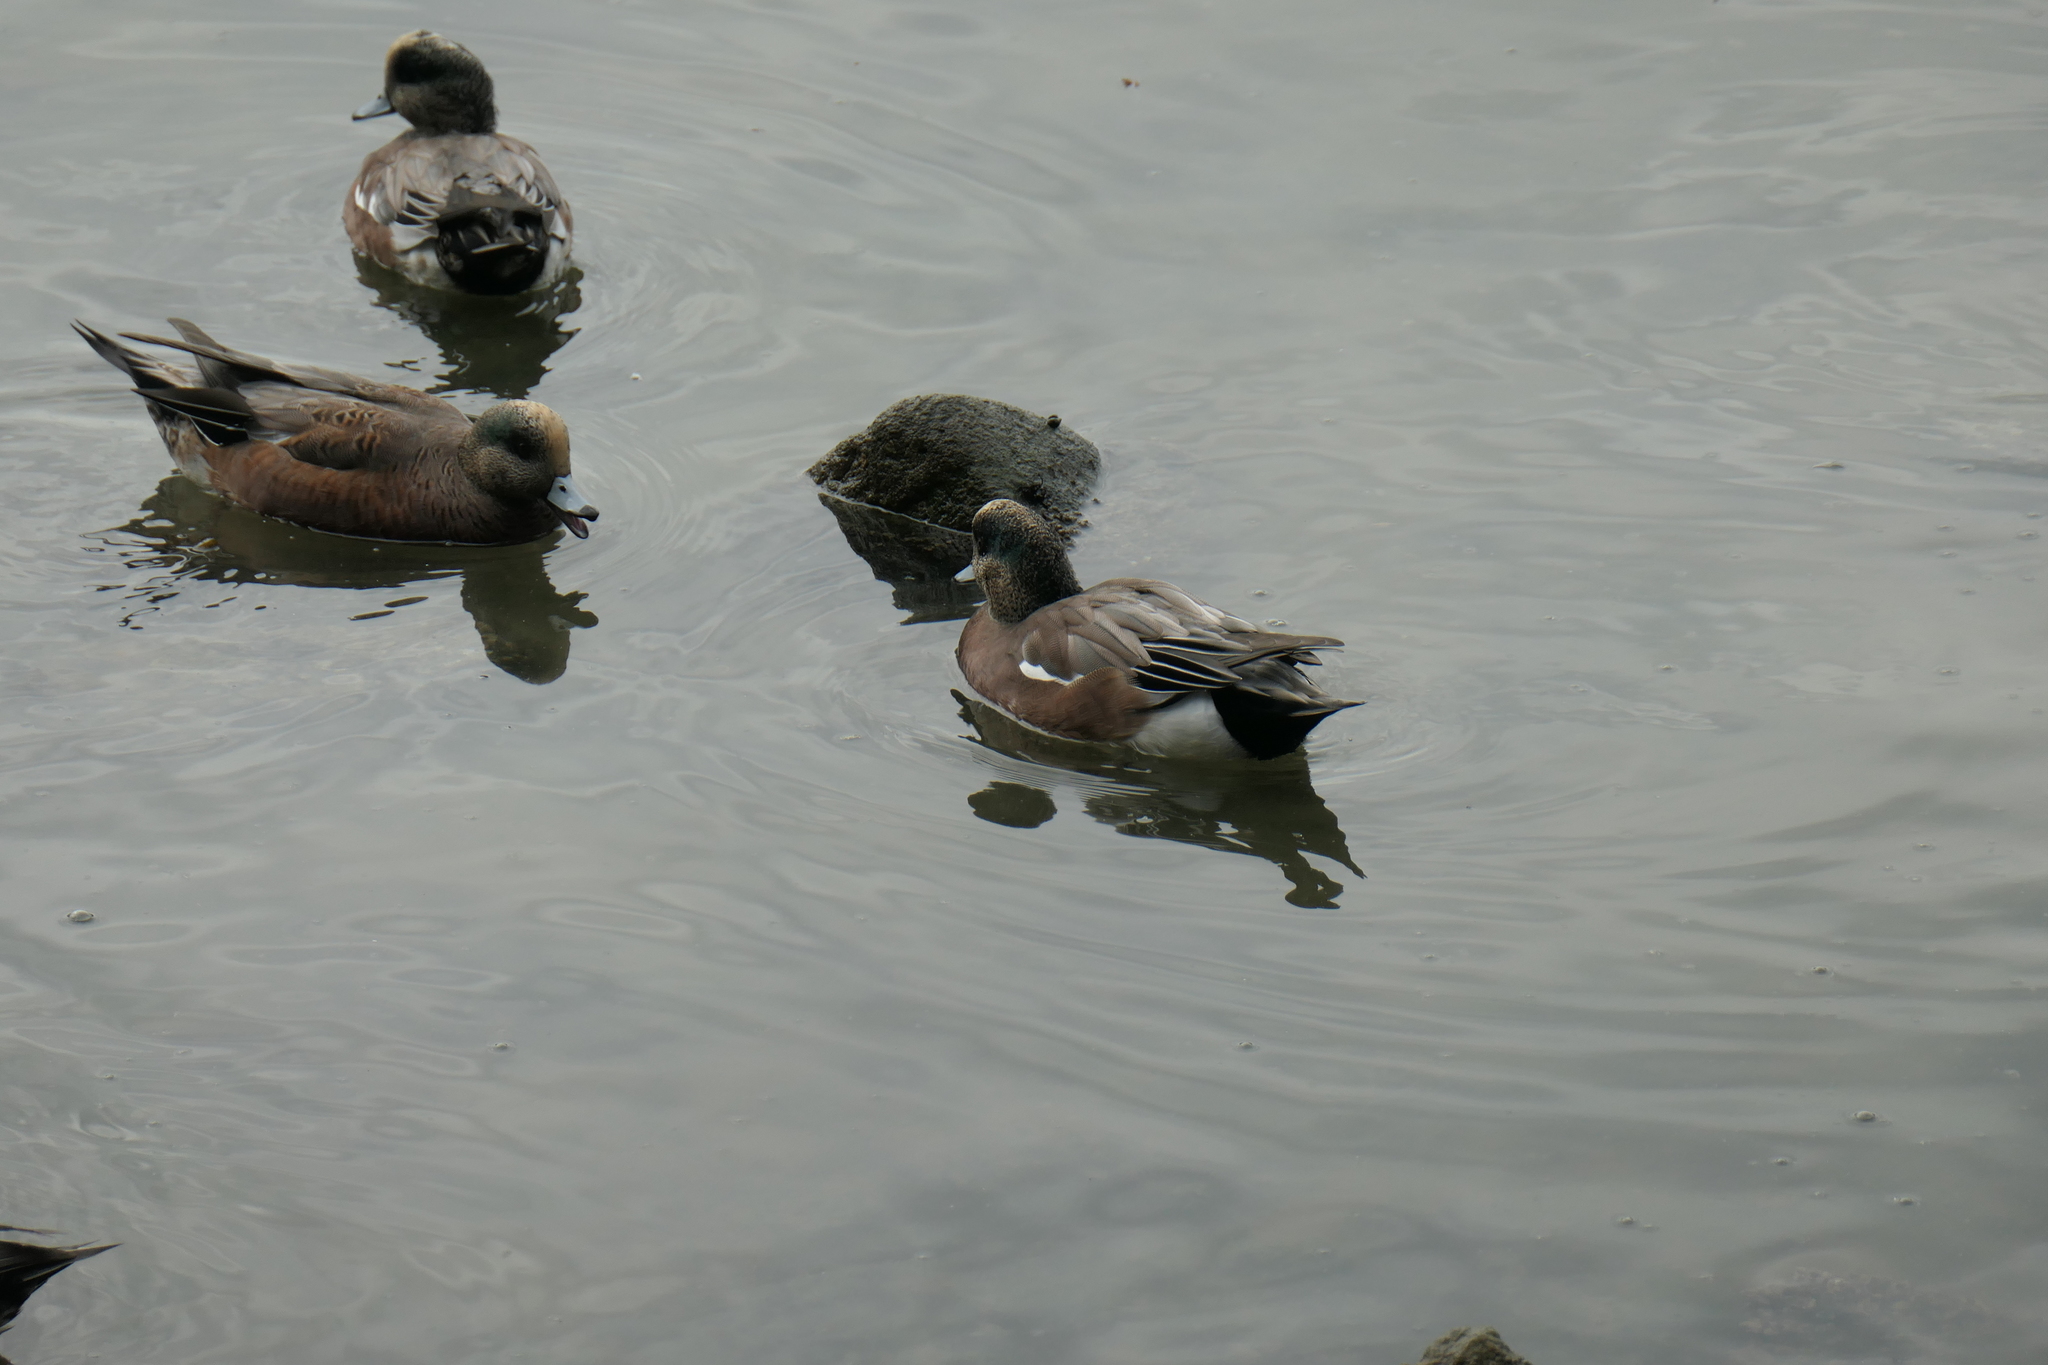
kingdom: Animalia
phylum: Chordata
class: Aves
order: Anseriformes
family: Anatidae
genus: Mareca
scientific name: Mareca americana
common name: American wigeon
